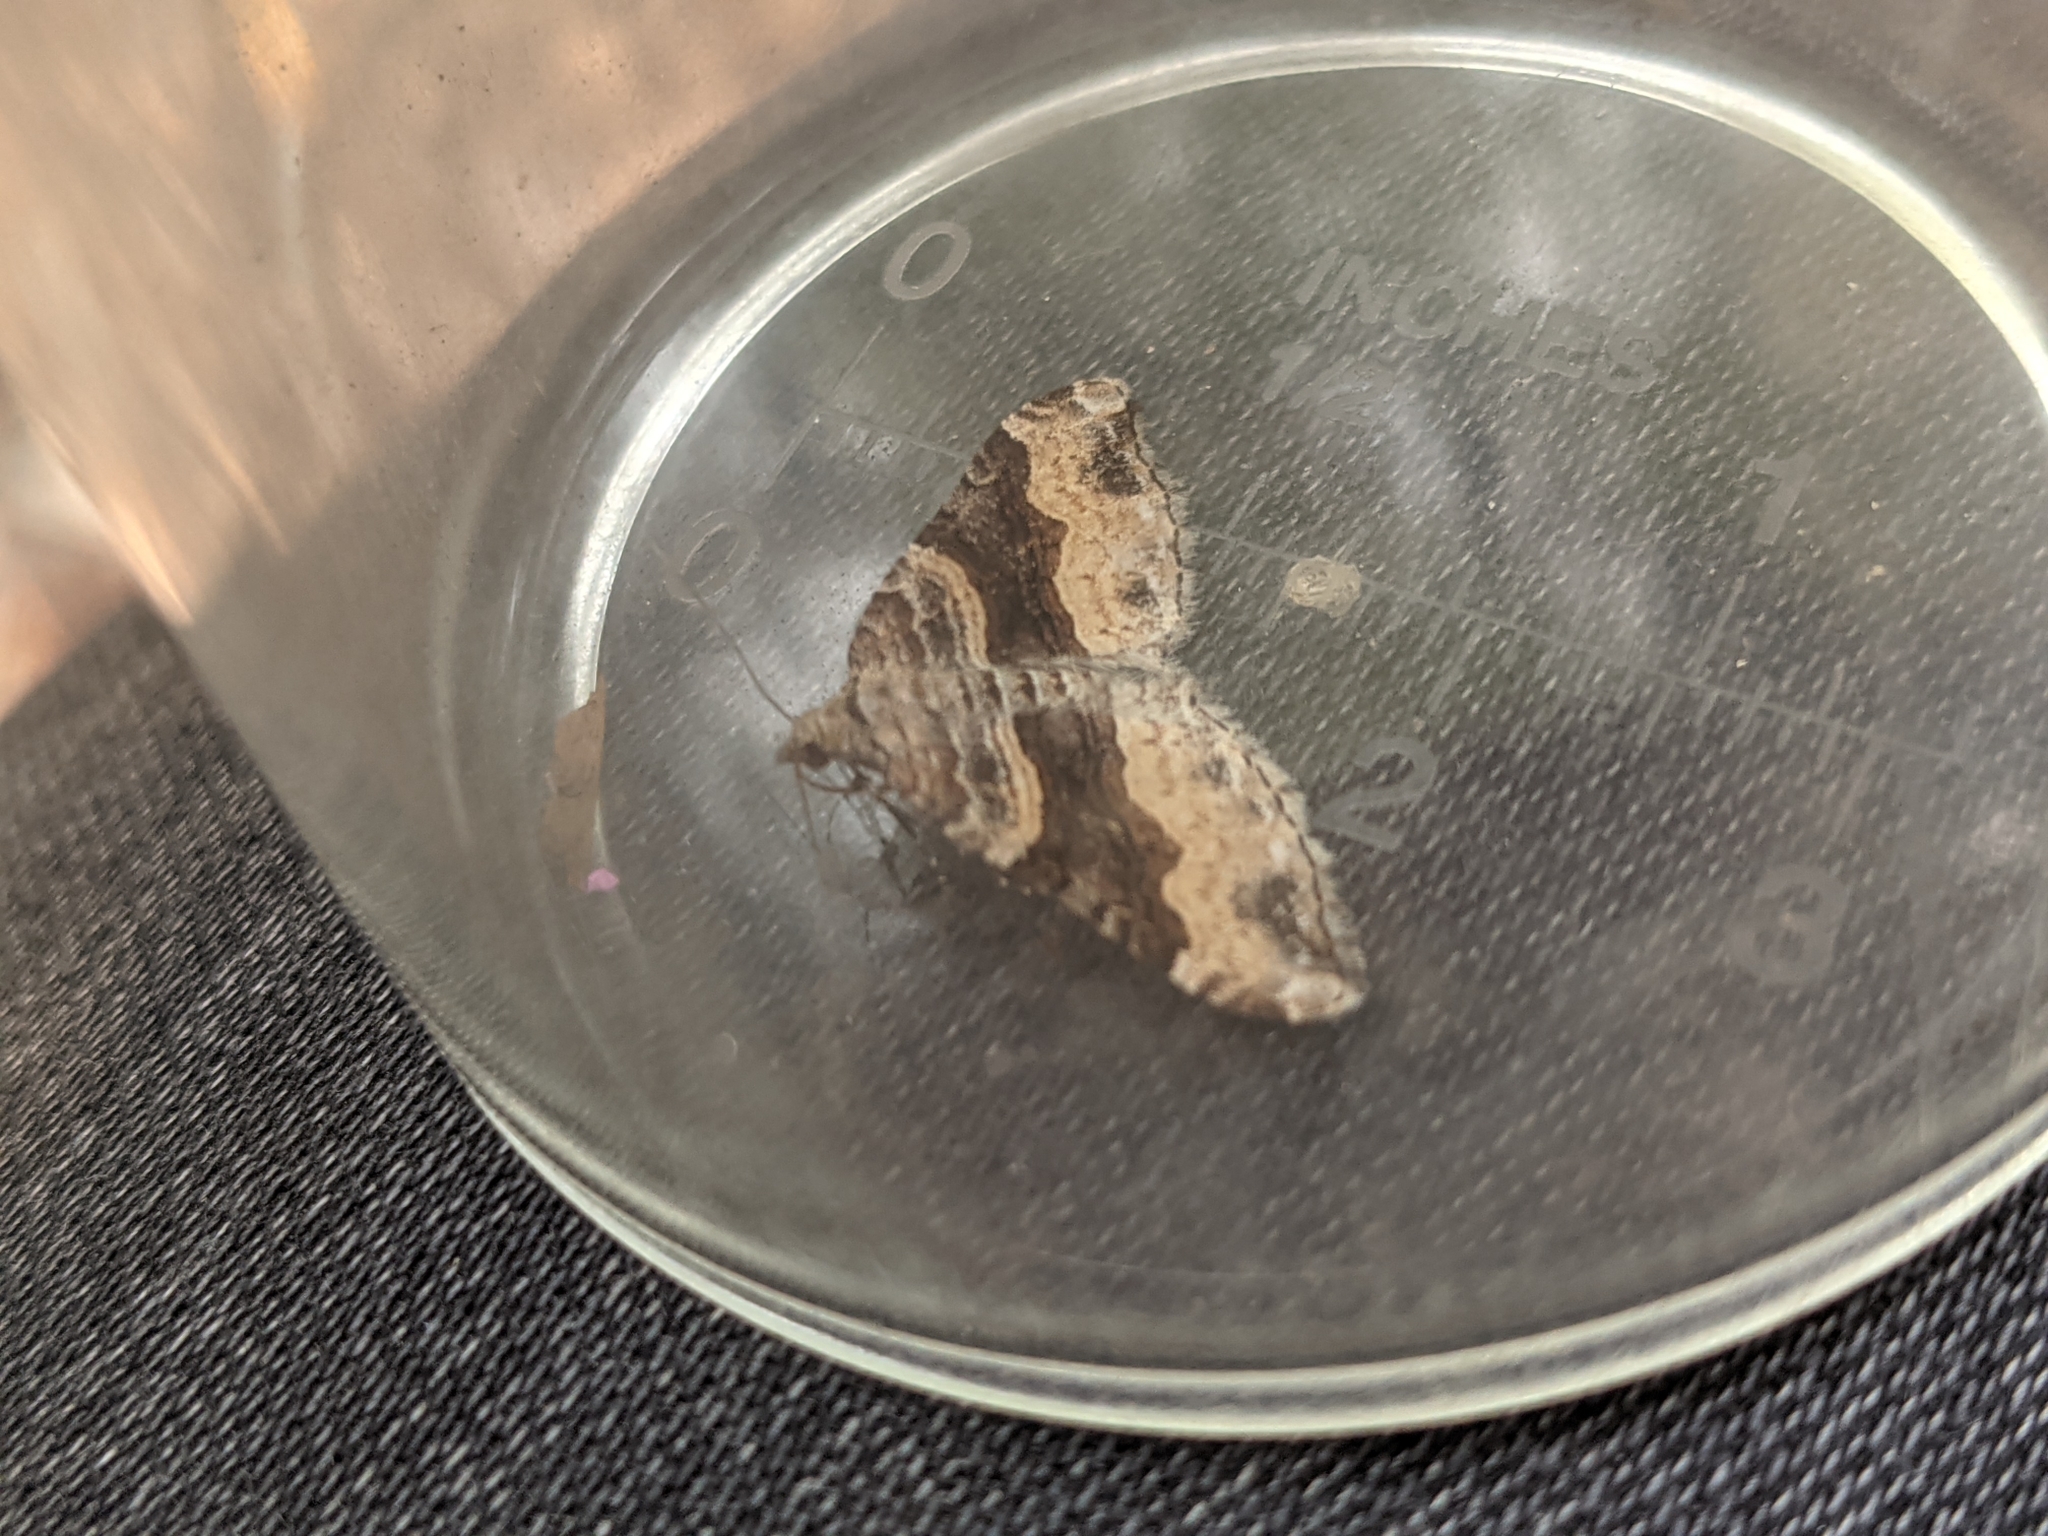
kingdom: Animalia
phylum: Arthropoda
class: Insecta
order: Lepidoptera
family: Geometridae
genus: Xanthorhoe
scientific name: Xanthorhoe defensaria
